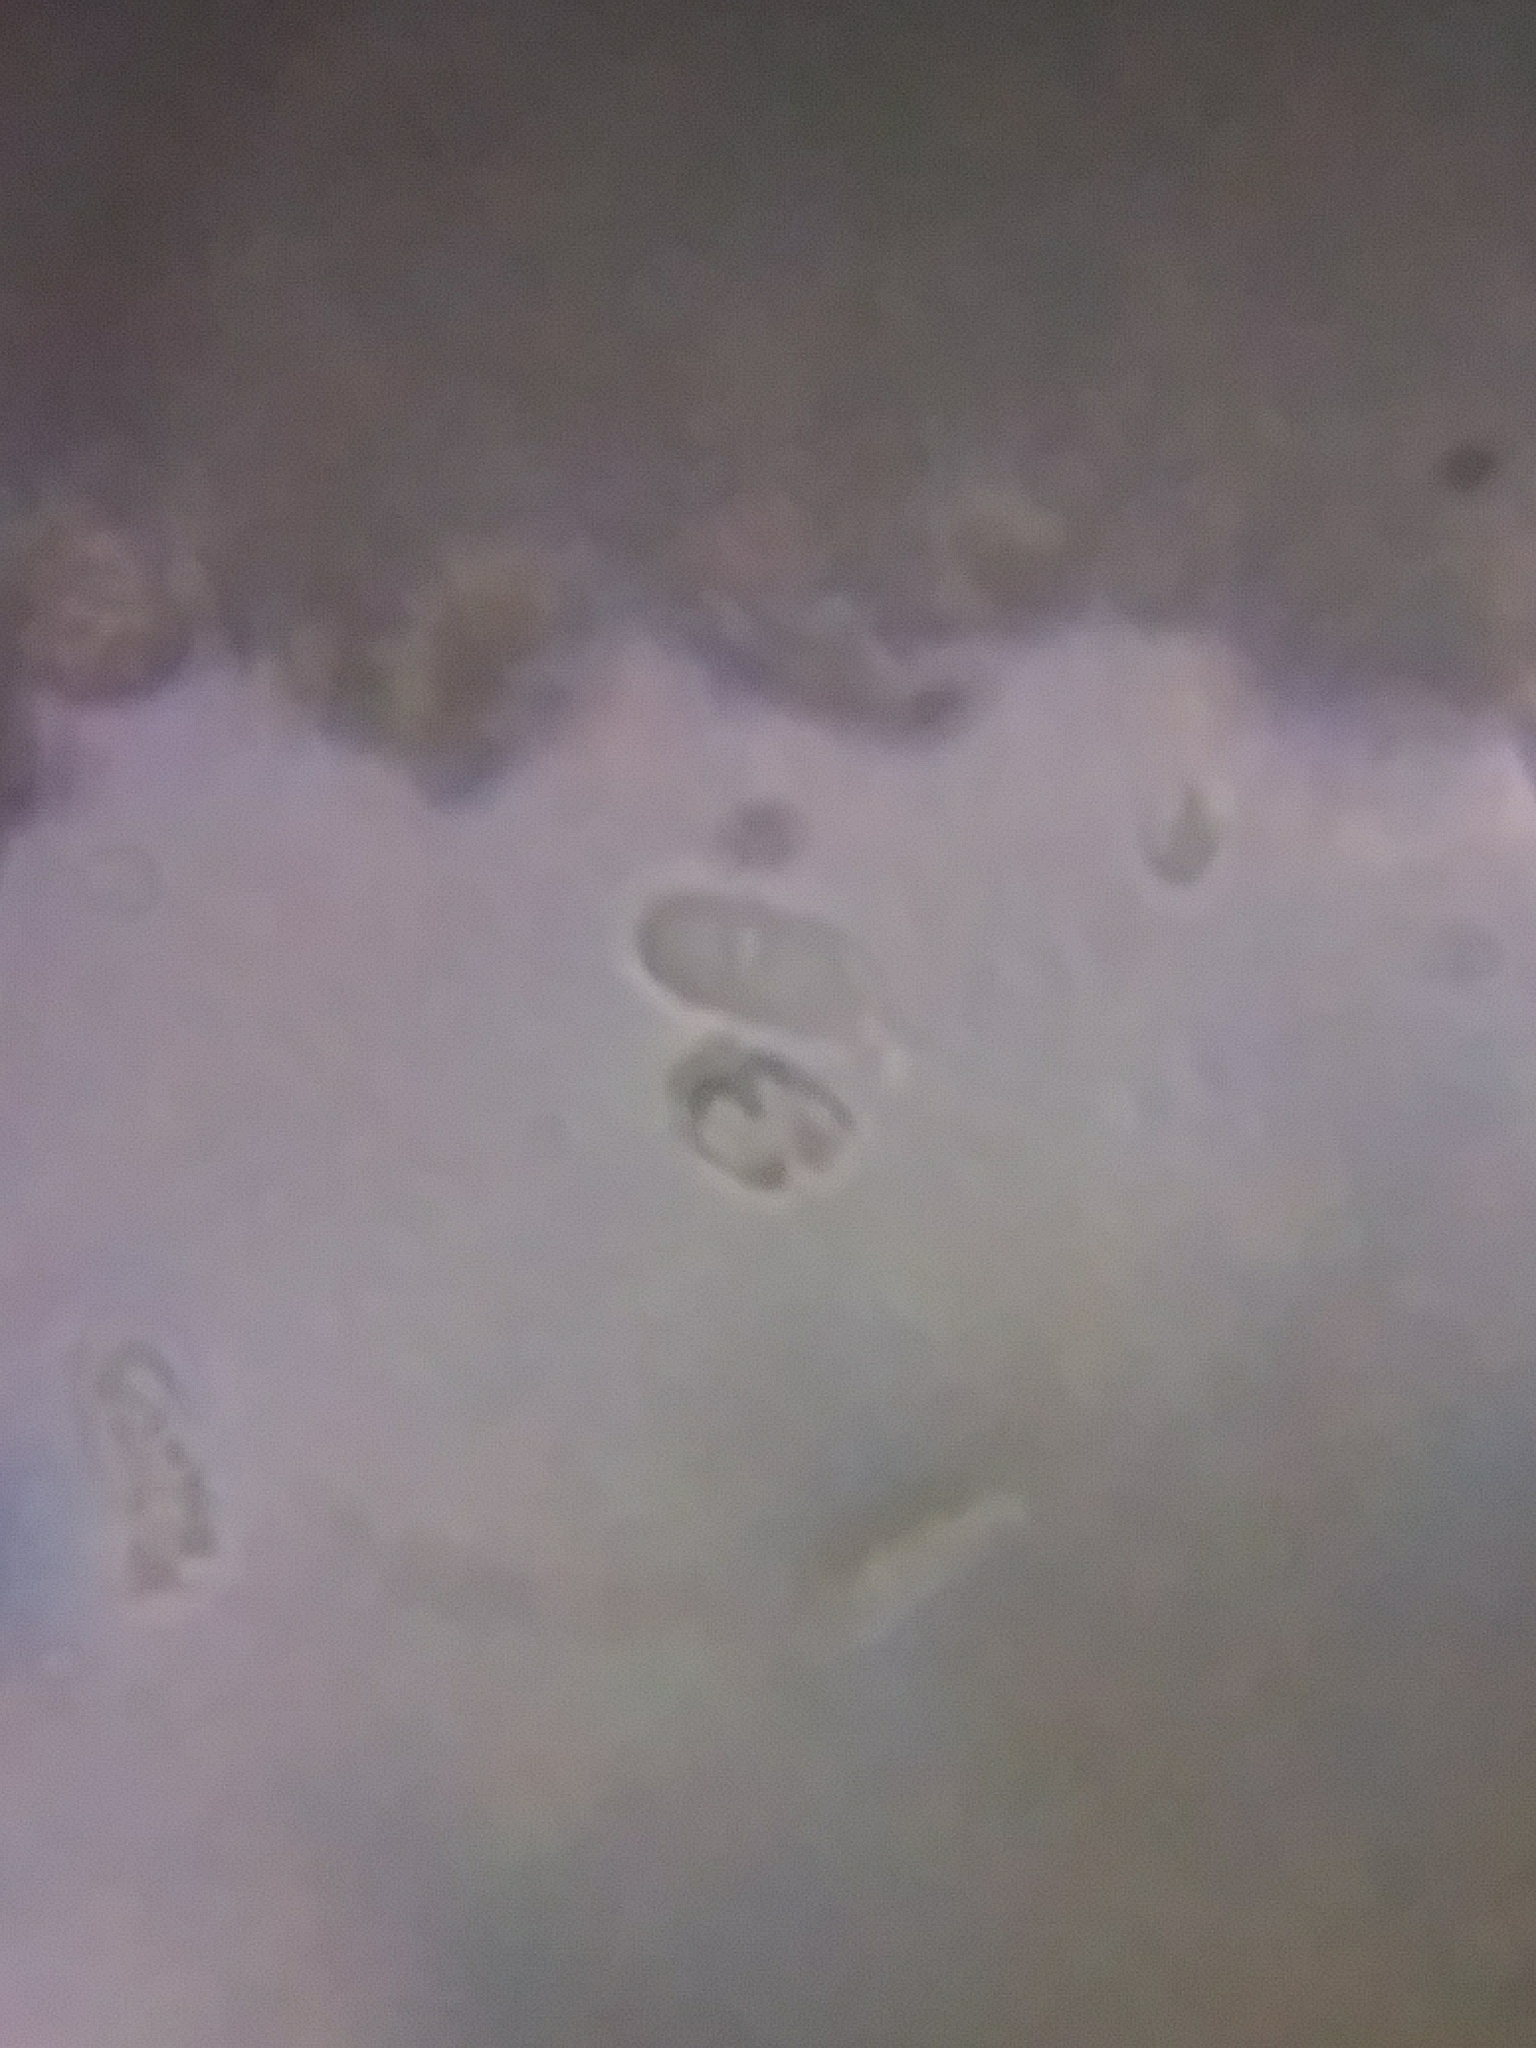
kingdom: Fungi
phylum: Basidiomycota
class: Agaricomycetes
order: Polyporales
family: Polyporaceae
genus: Trametes
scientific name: Trametes trogii
